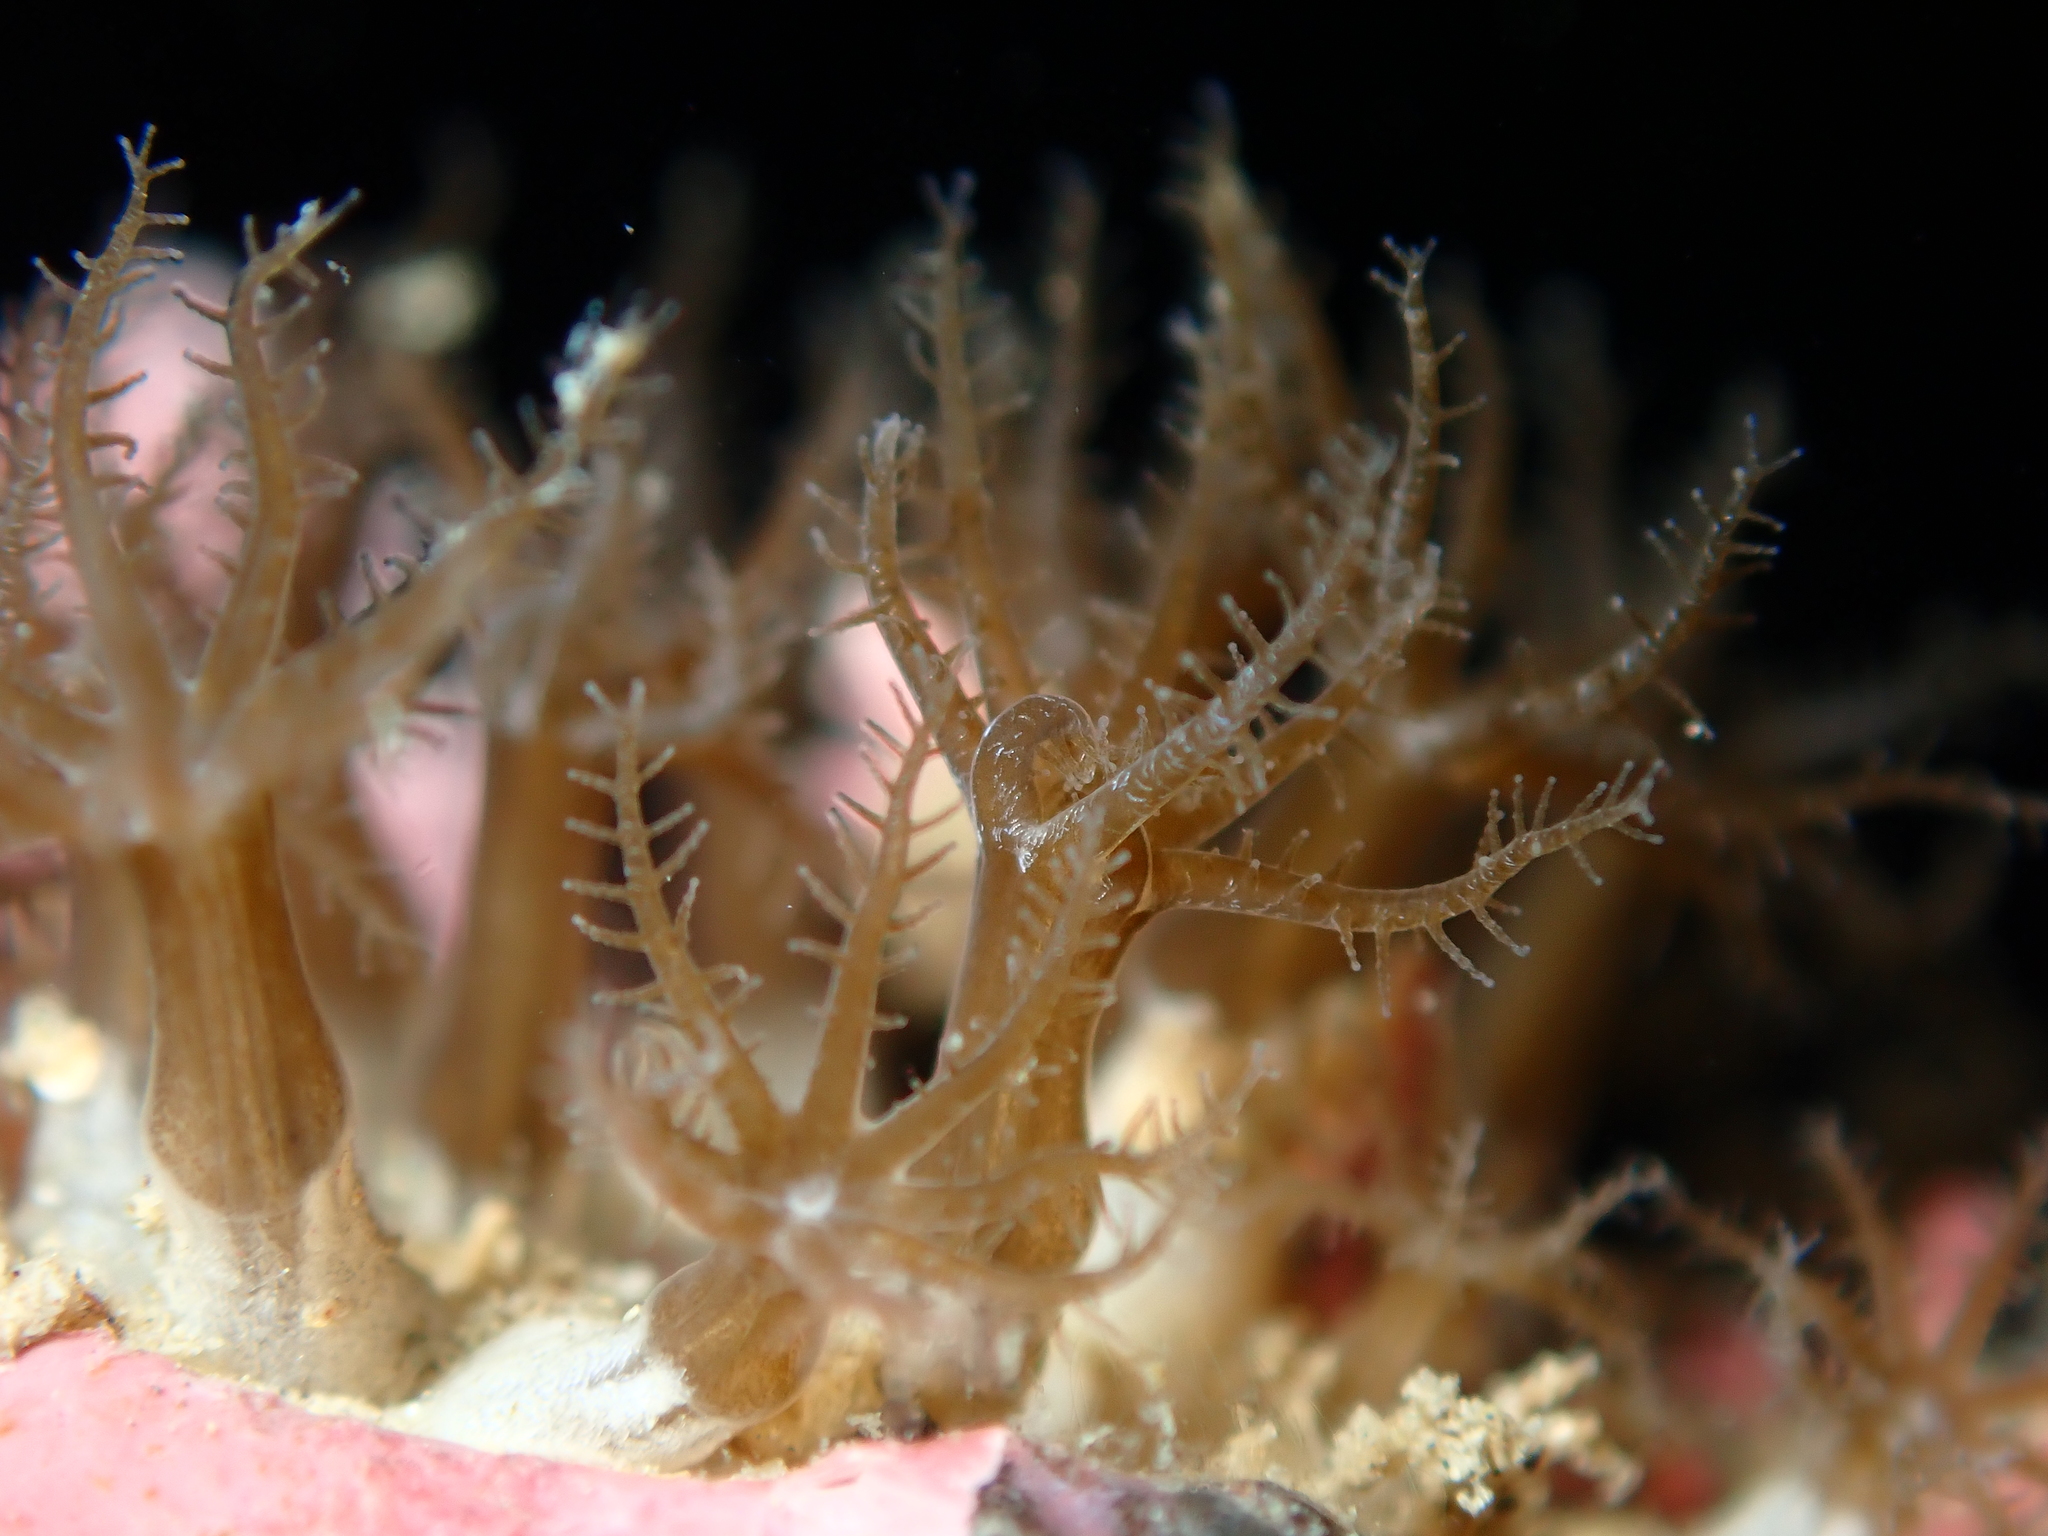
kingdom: Animalia
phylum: Cnidaria
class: Anthozoa
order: Malacalcyonacea
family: Clavulariidae
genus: Clavularia
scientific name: Clavularia novaezealandiae
